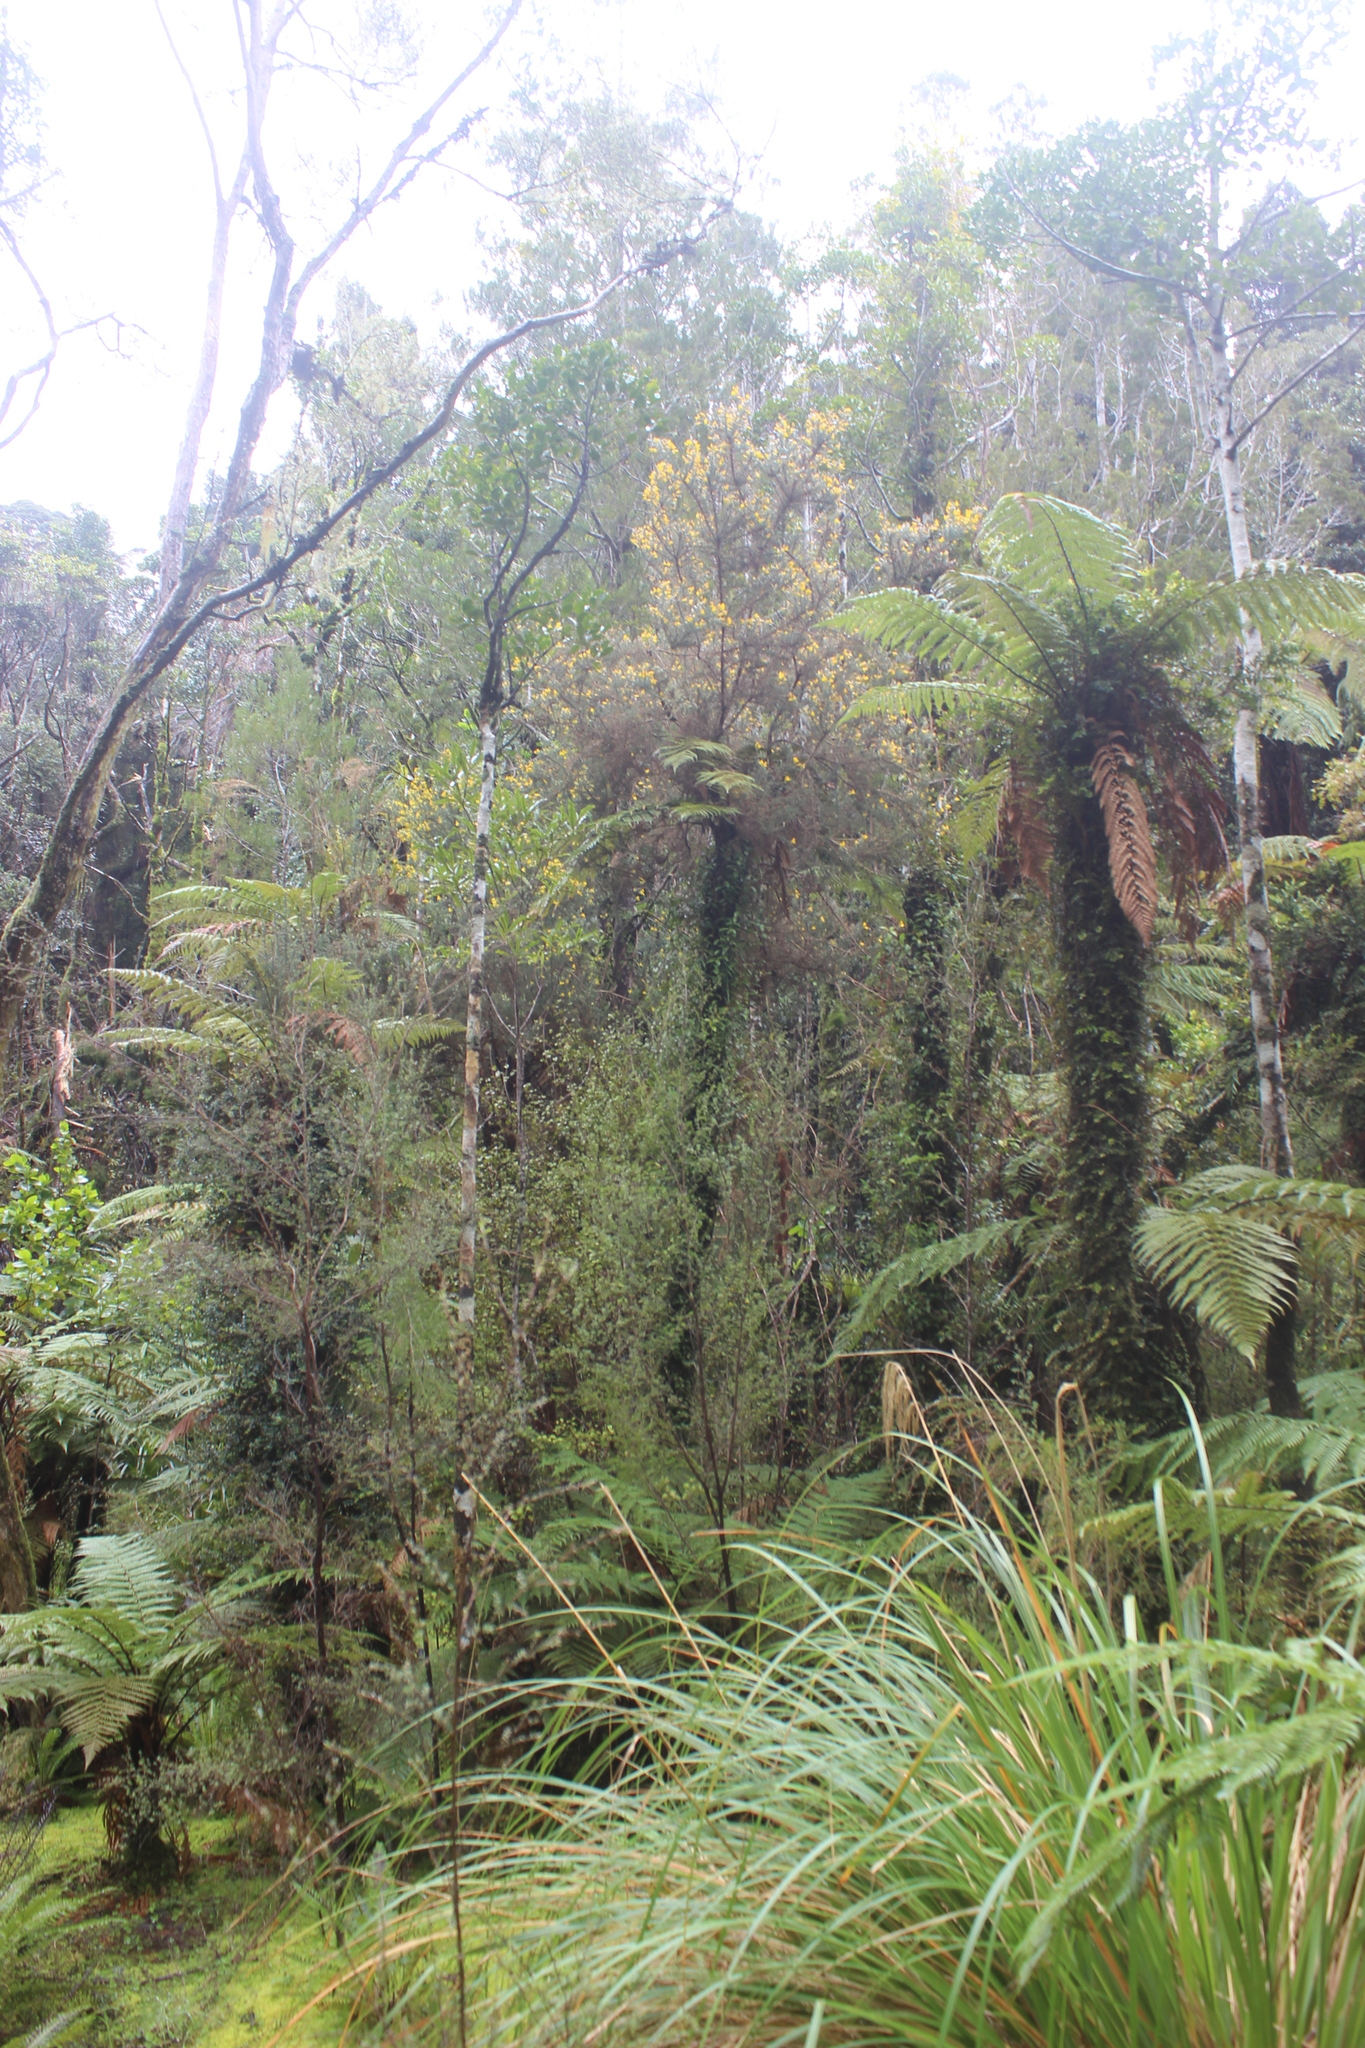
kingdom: Plantae
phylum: Tracheophyta
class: Magnoliopsida
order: Fabales
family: Fabaceae
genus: Ulex
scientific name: Ulex europaeus
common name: Common gorse
